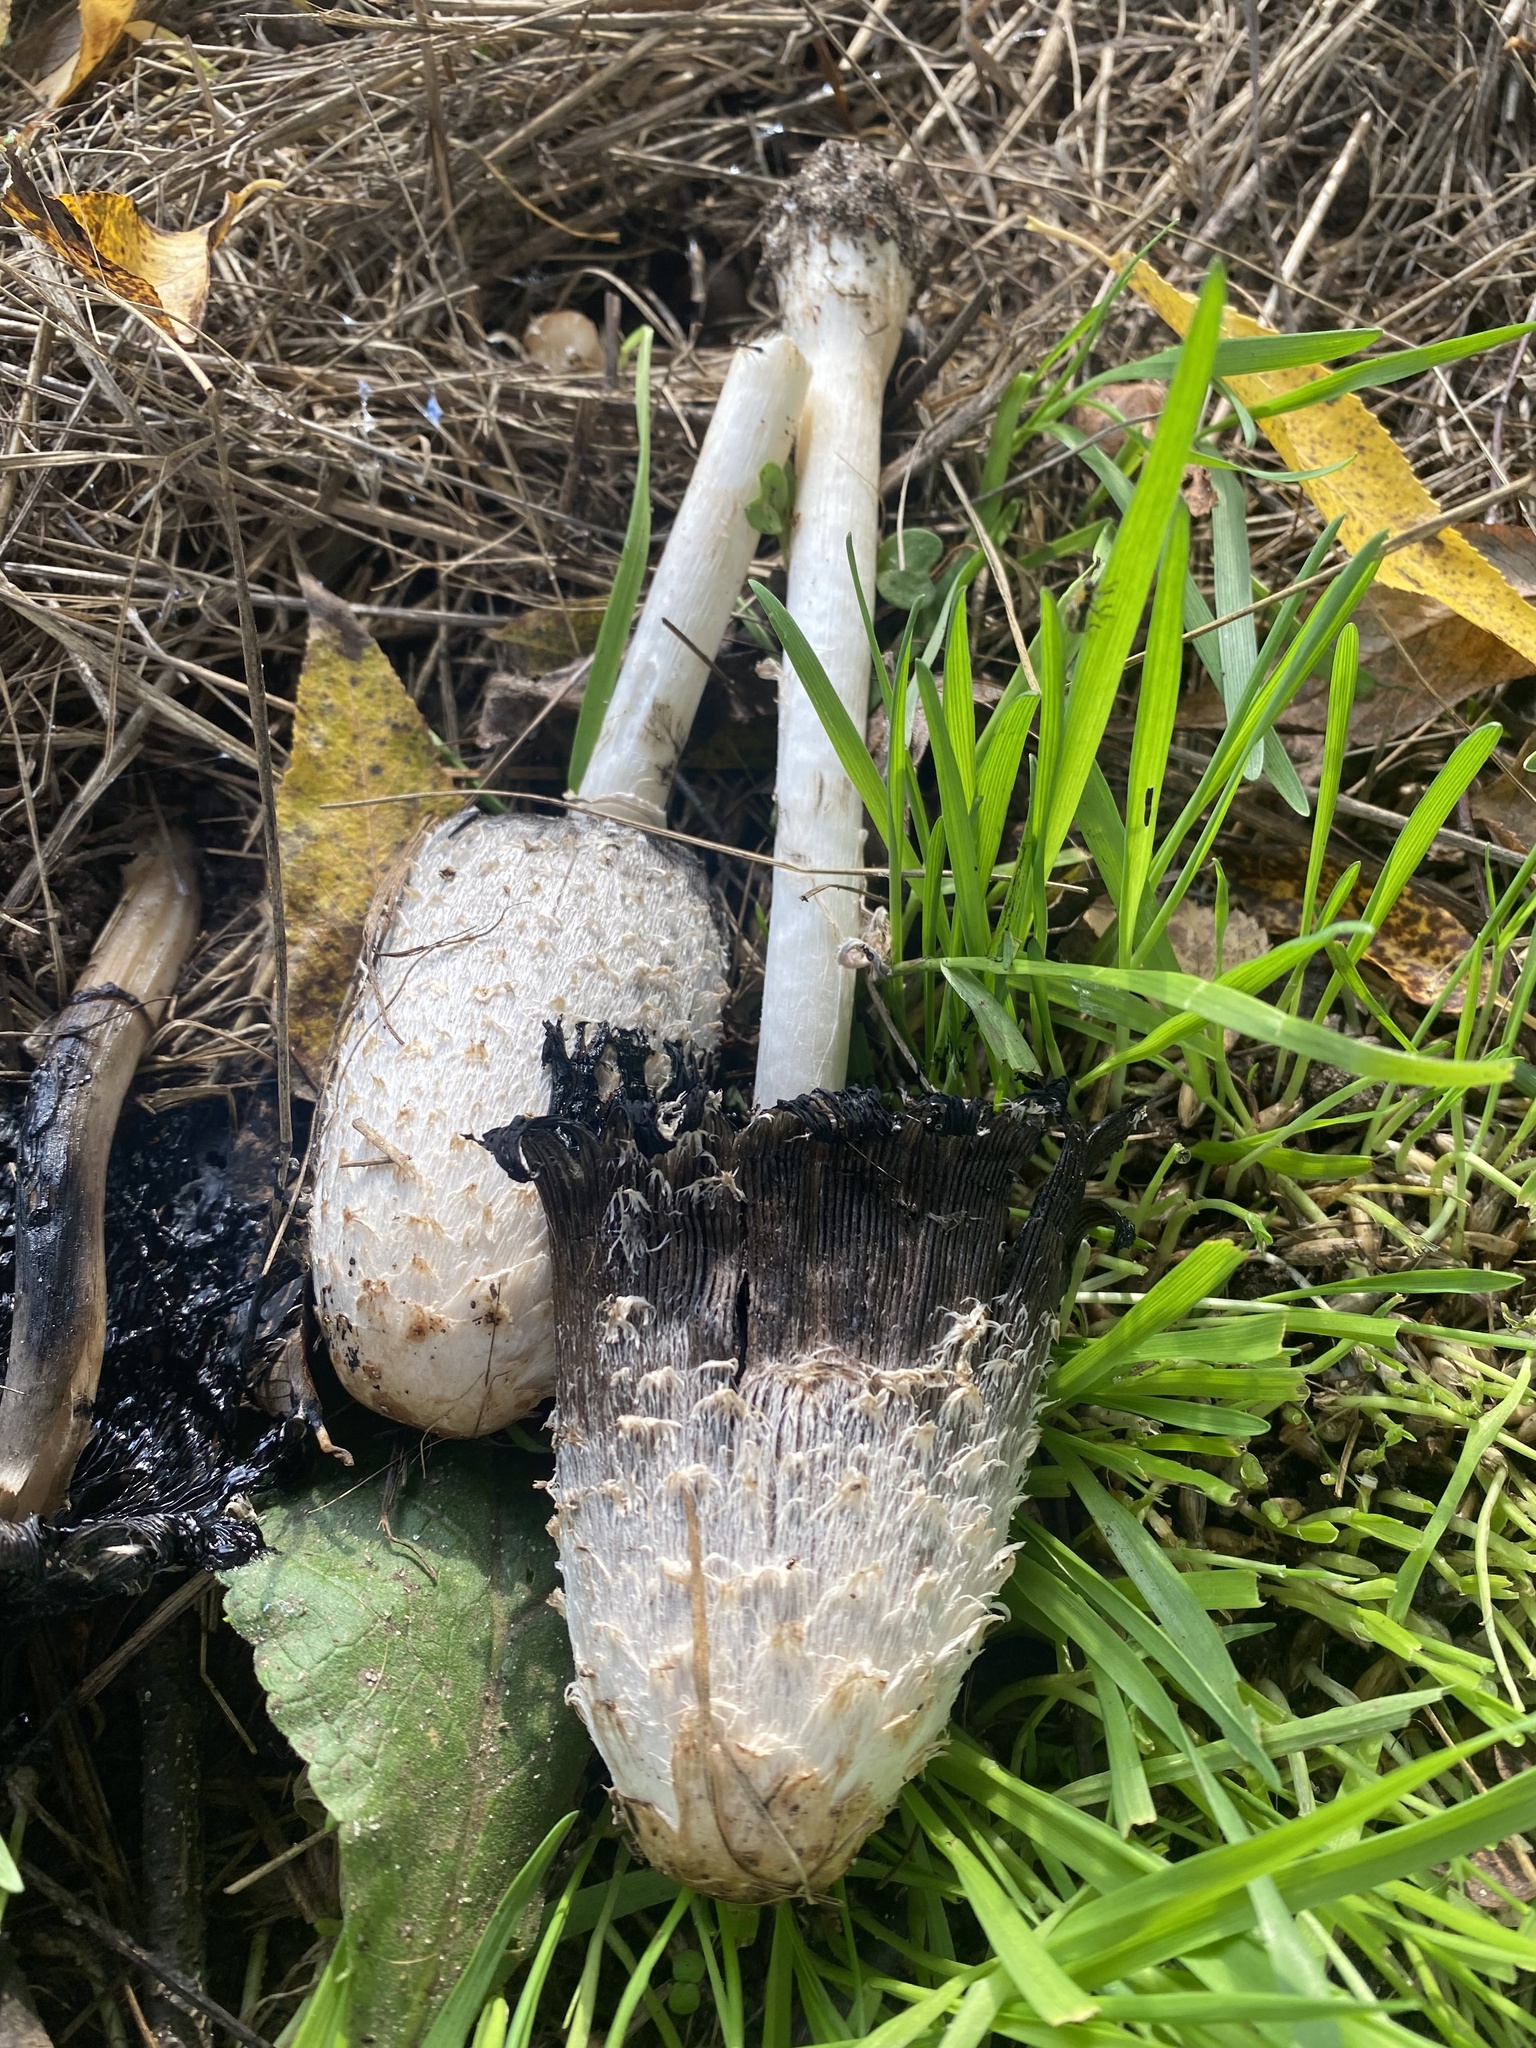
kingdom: Fungi
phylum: Basidiomycota
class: Agaricomycetes
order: Agaricales
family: Agaricaceae
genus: Coprinus
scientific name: Coprinus comatus
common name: Lawyer's wig
